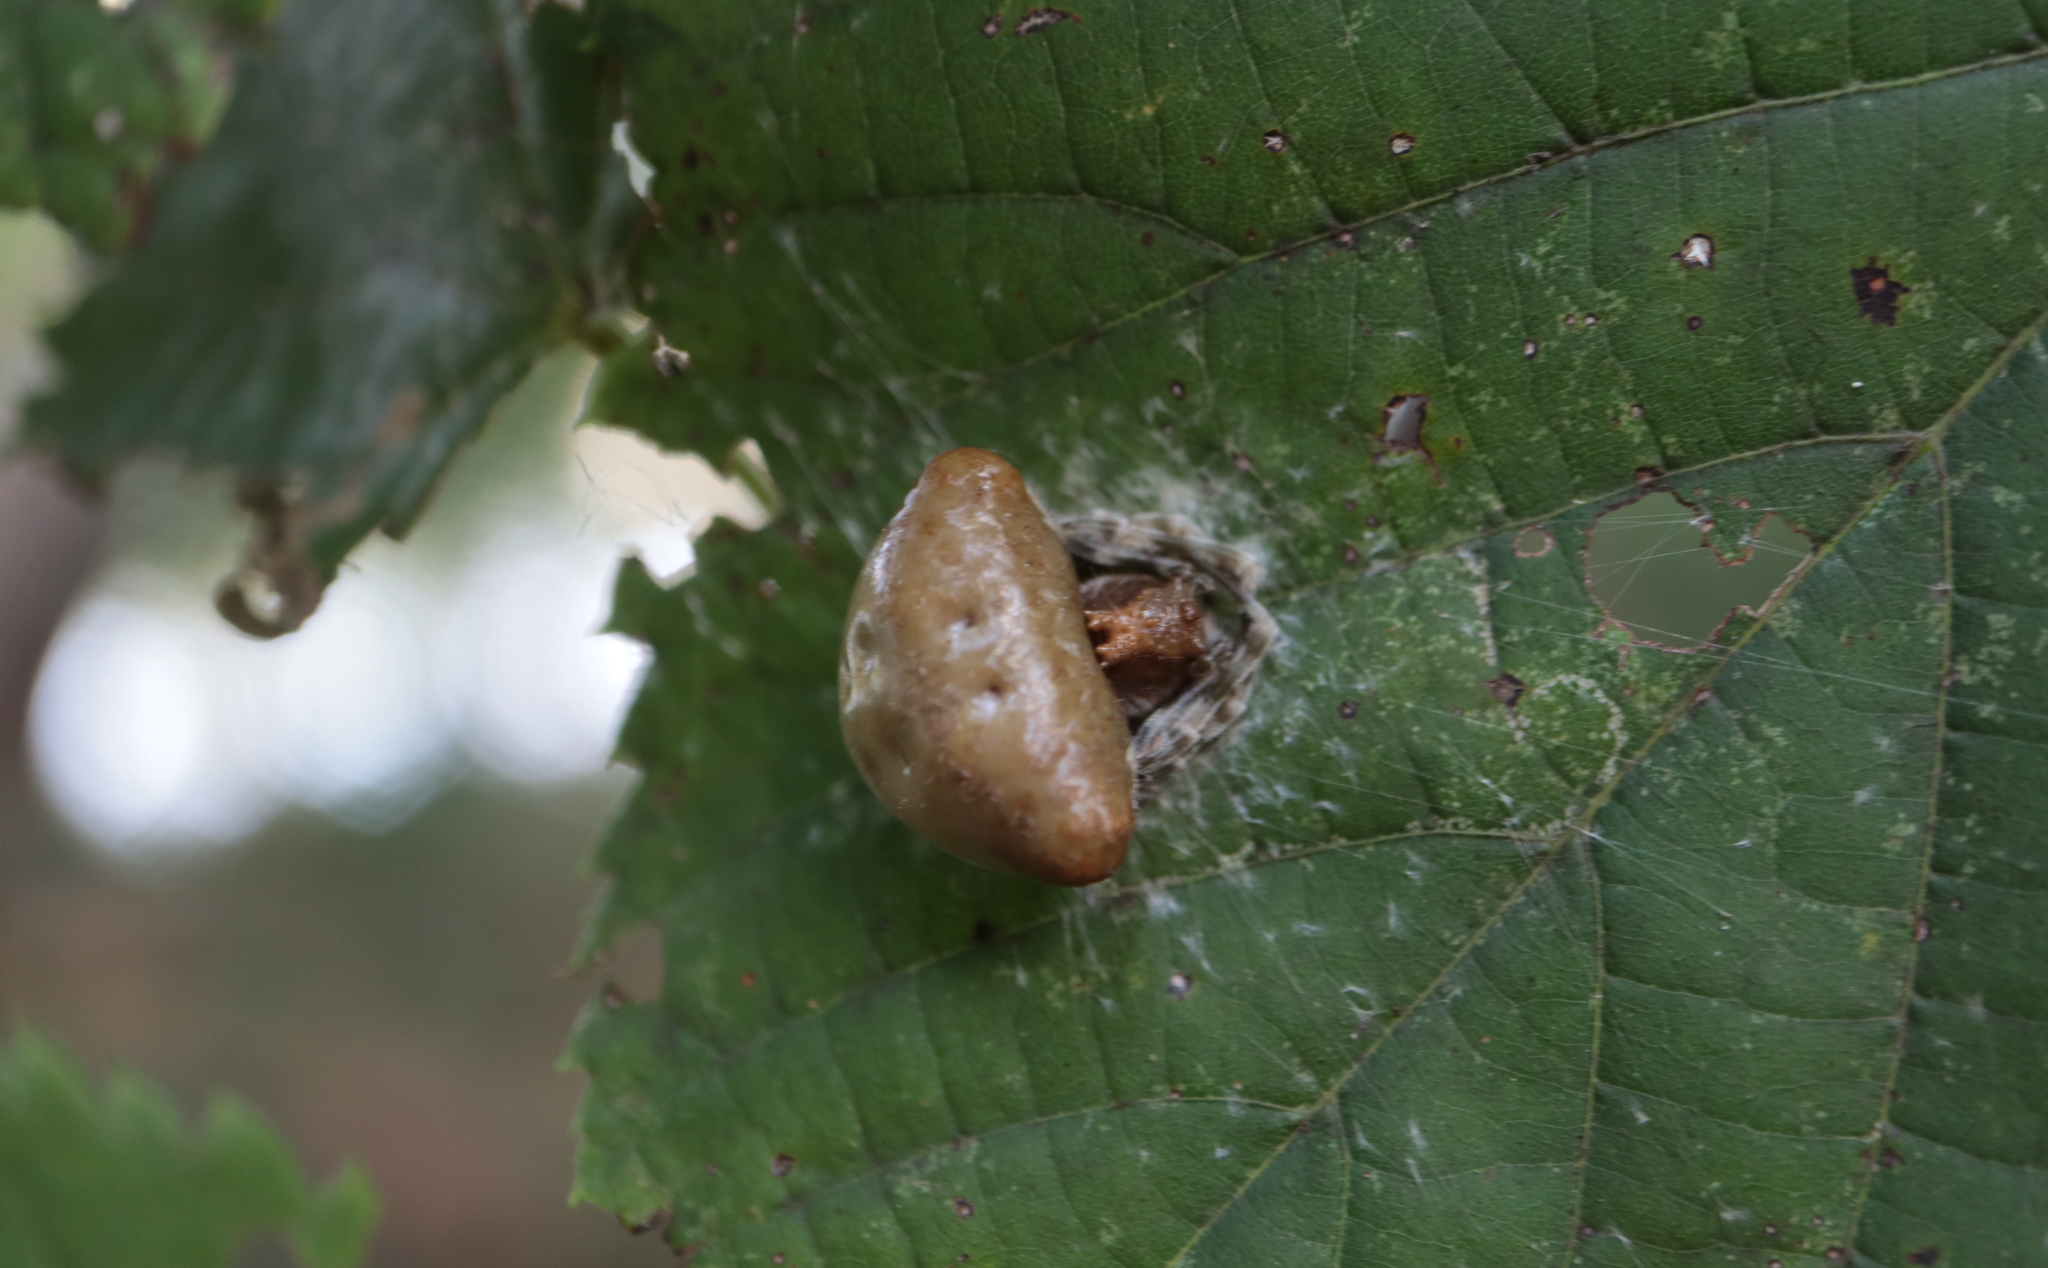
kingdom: Animalia
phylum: Arthropoda
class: Arachnida
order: Araneae
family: Araneidae
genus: Mastophora
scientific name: Mastophora phrynosoma
